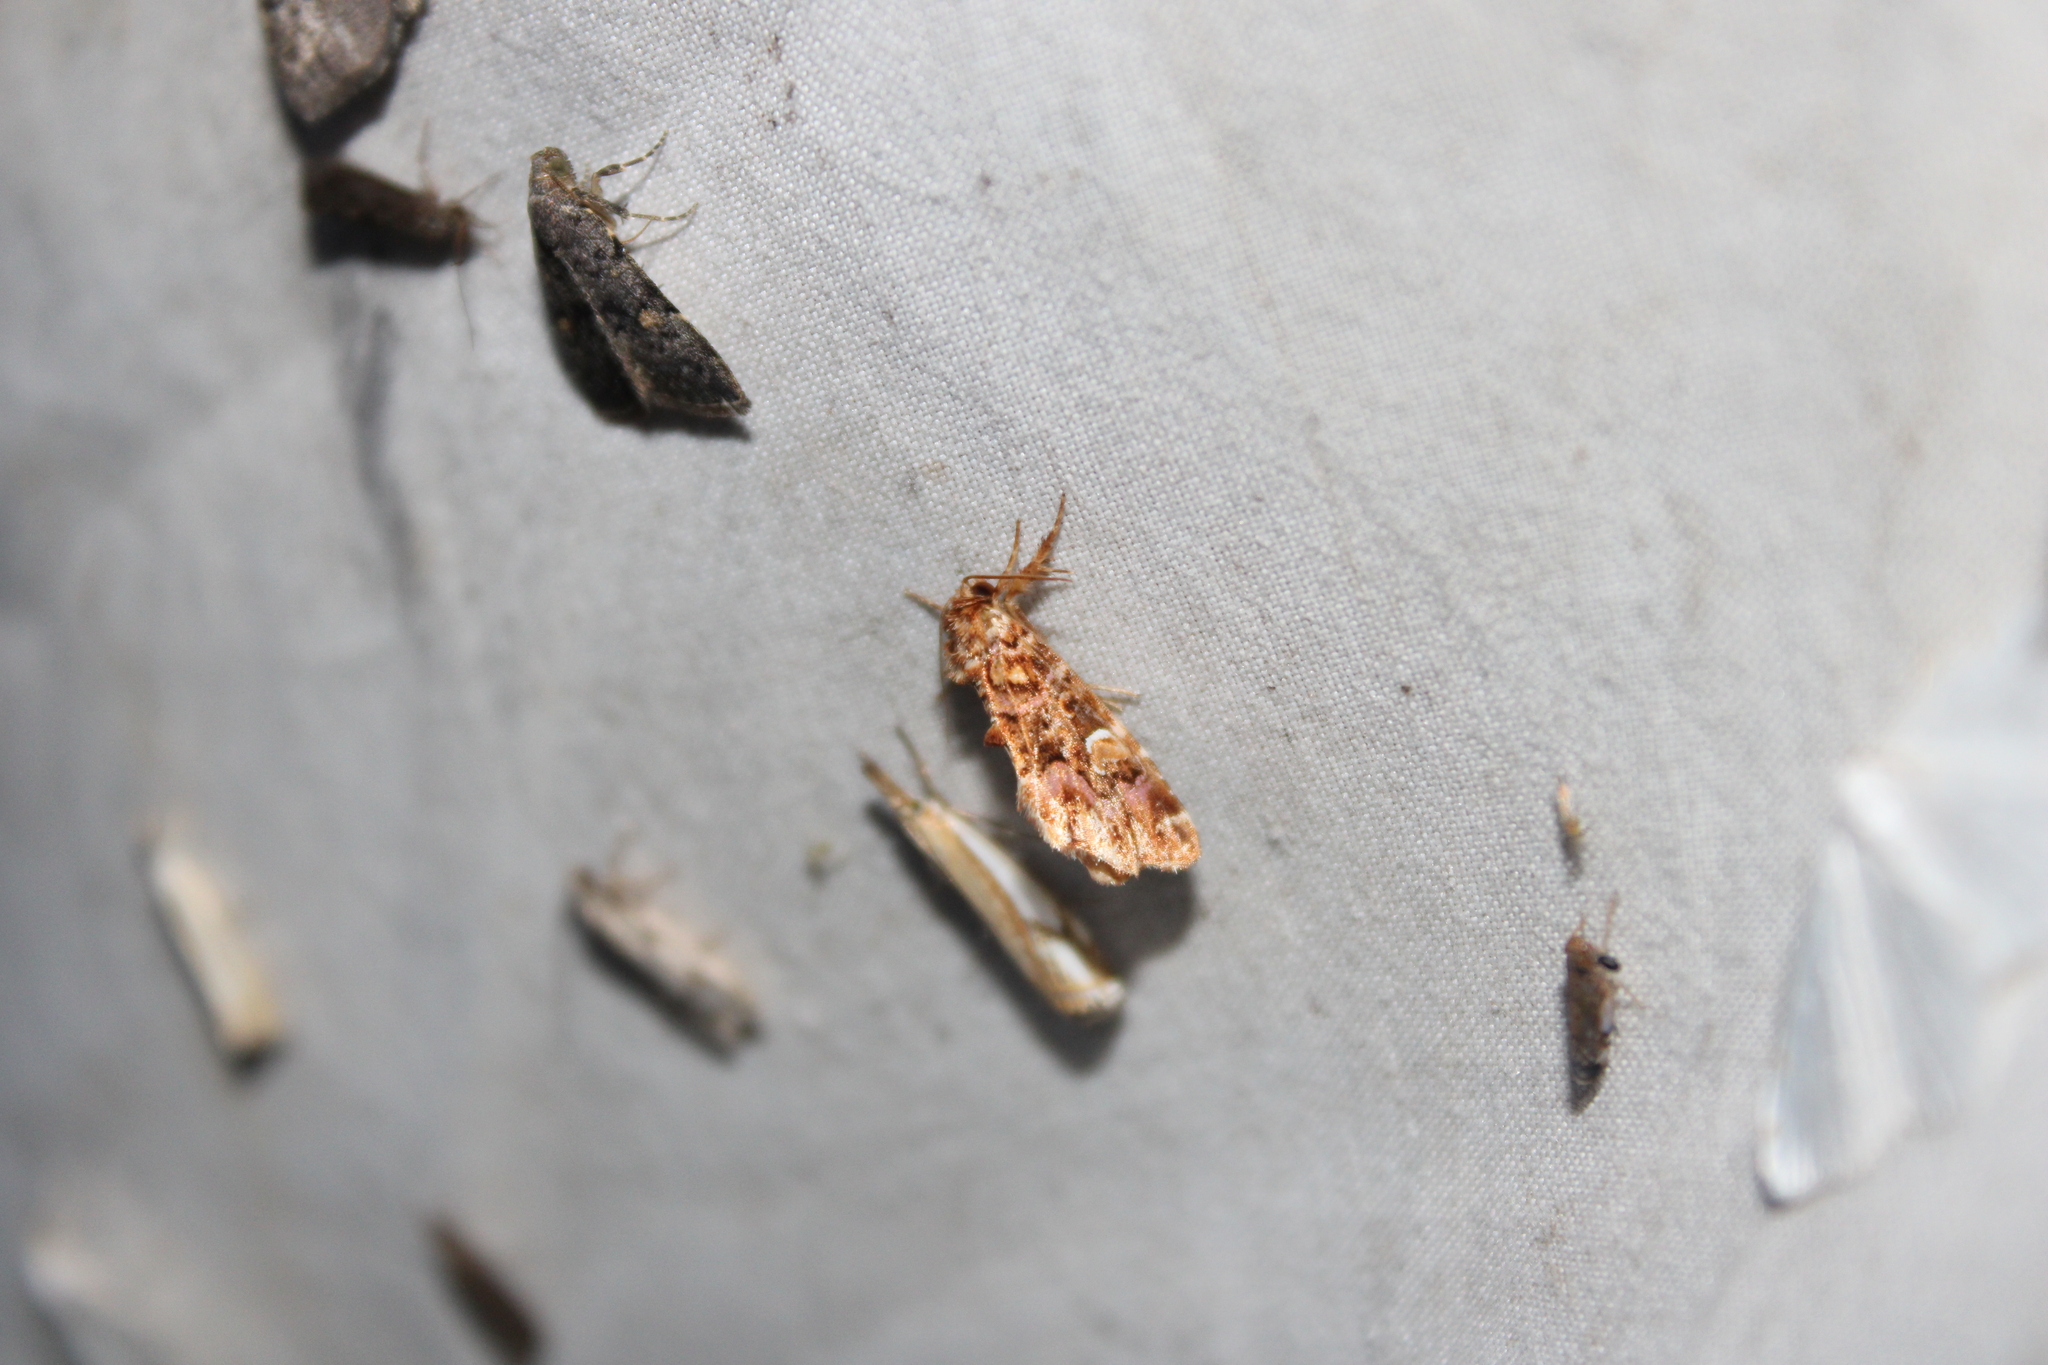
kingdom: Animalia
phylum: Arthropoda
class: Insecta
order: Lepidoptera
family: Noctuidae
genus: Callopistria
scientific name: Callopistria mollissima
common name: Pink-shaded fern moth
